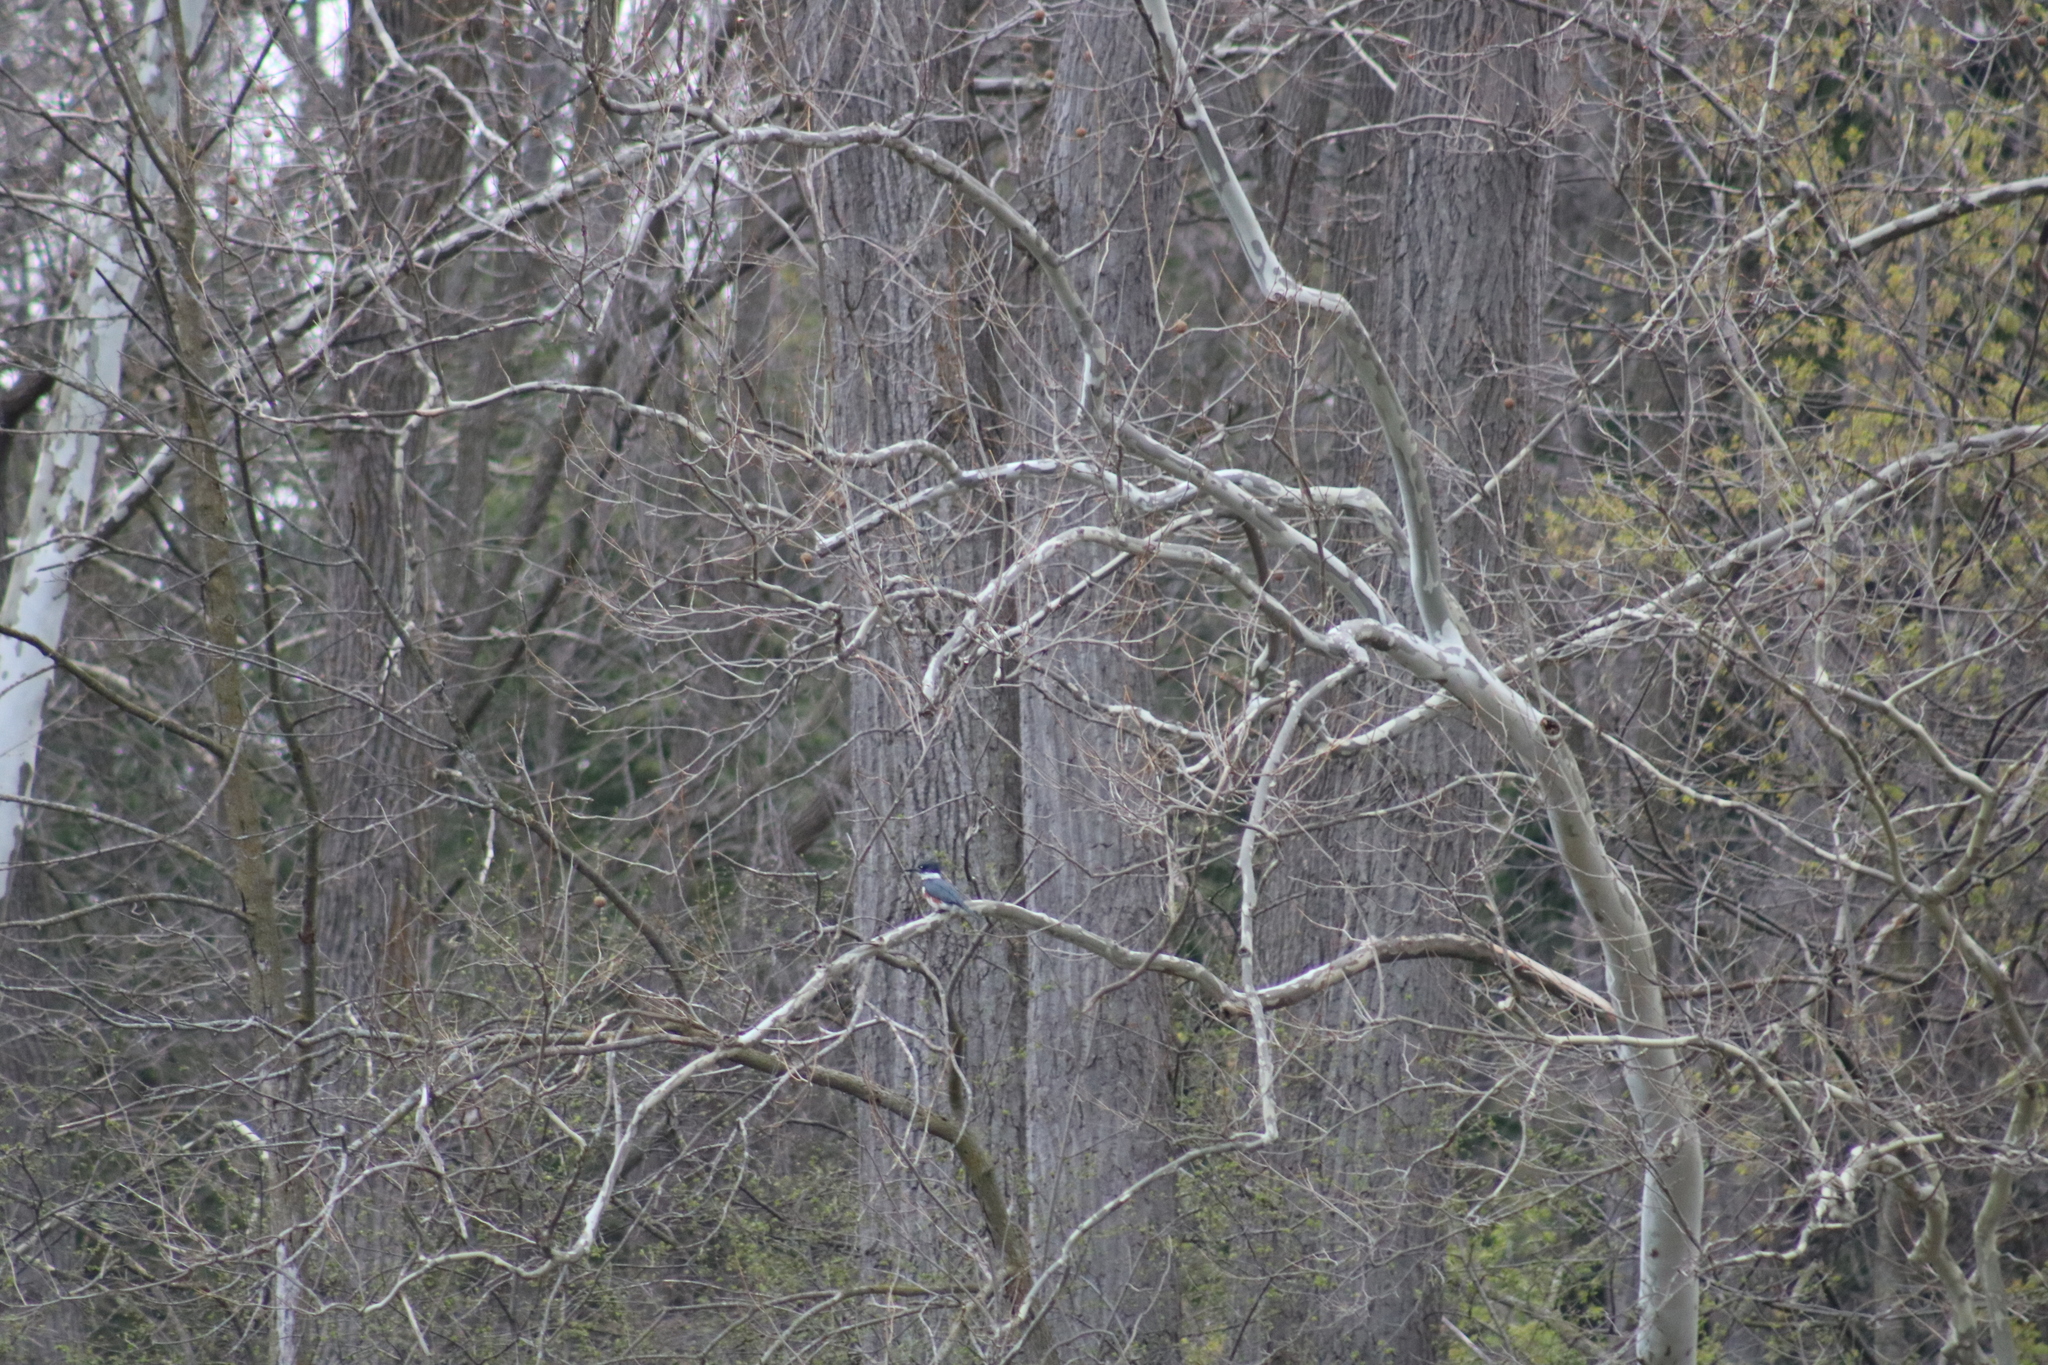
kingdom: Animalia
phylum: Chordata
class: Aves
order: Coraciiformes
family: Alcedinidae
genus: Megaceryle
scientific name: Megaceryle alcyon
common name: Belted kingfisher
